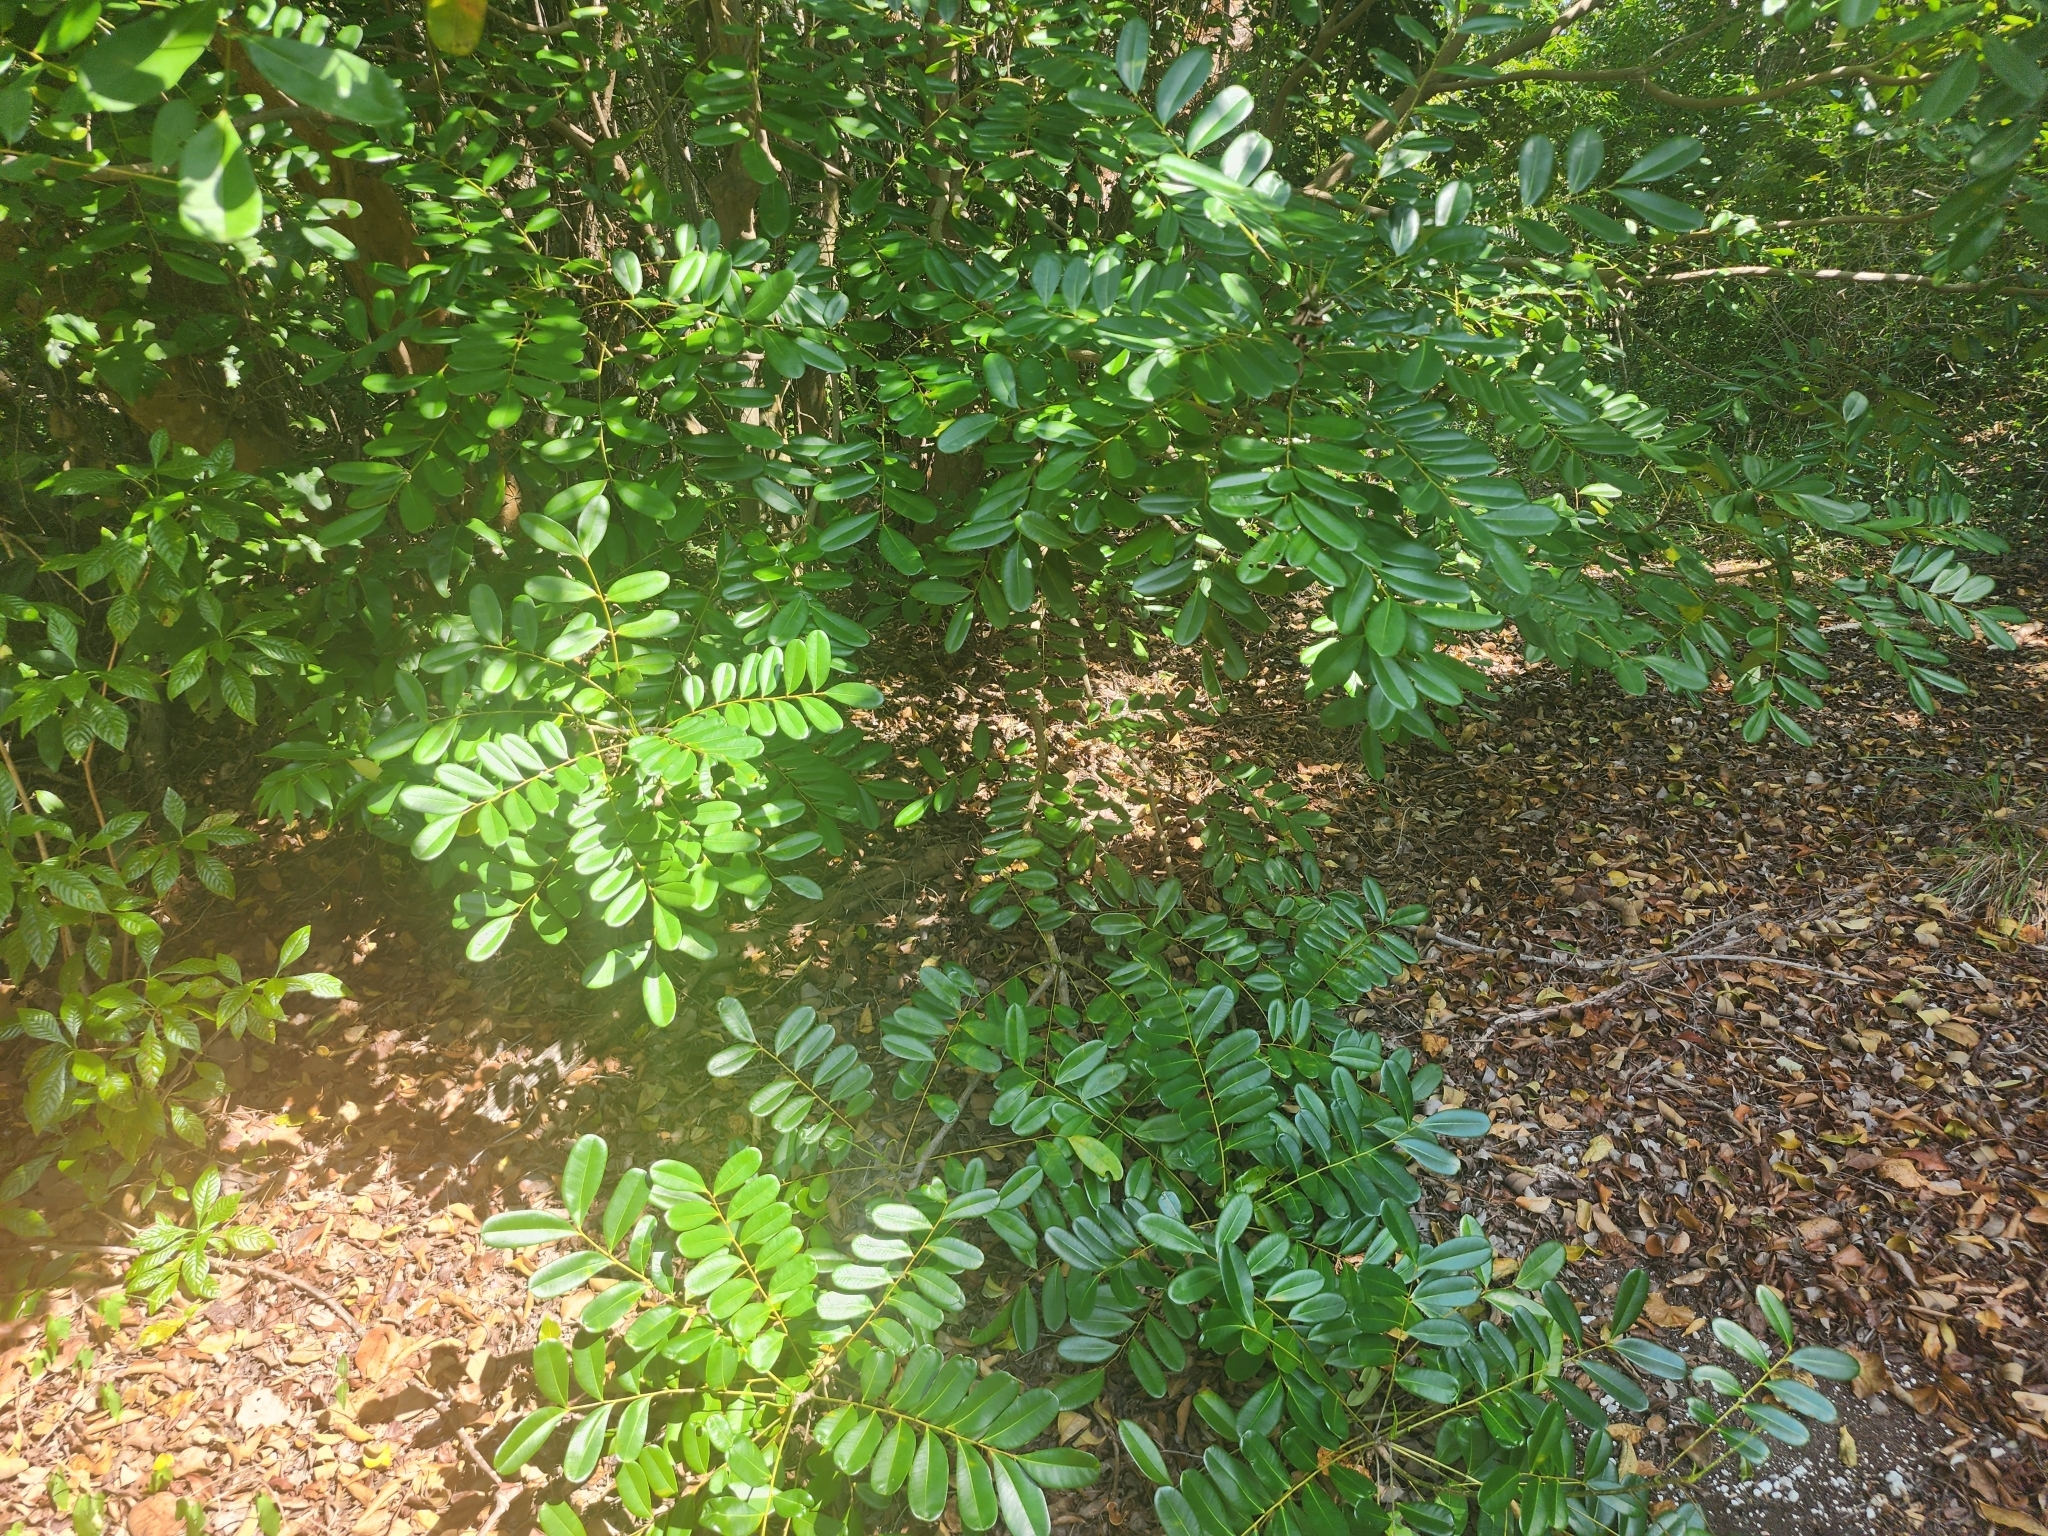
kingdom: Plantae
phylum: Tracheophyta
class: Magnoliopsida
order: Sapindales
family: Simaroubaceae
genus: Simarouba
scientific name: Simarouba glauca
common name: Dysentery-bark
